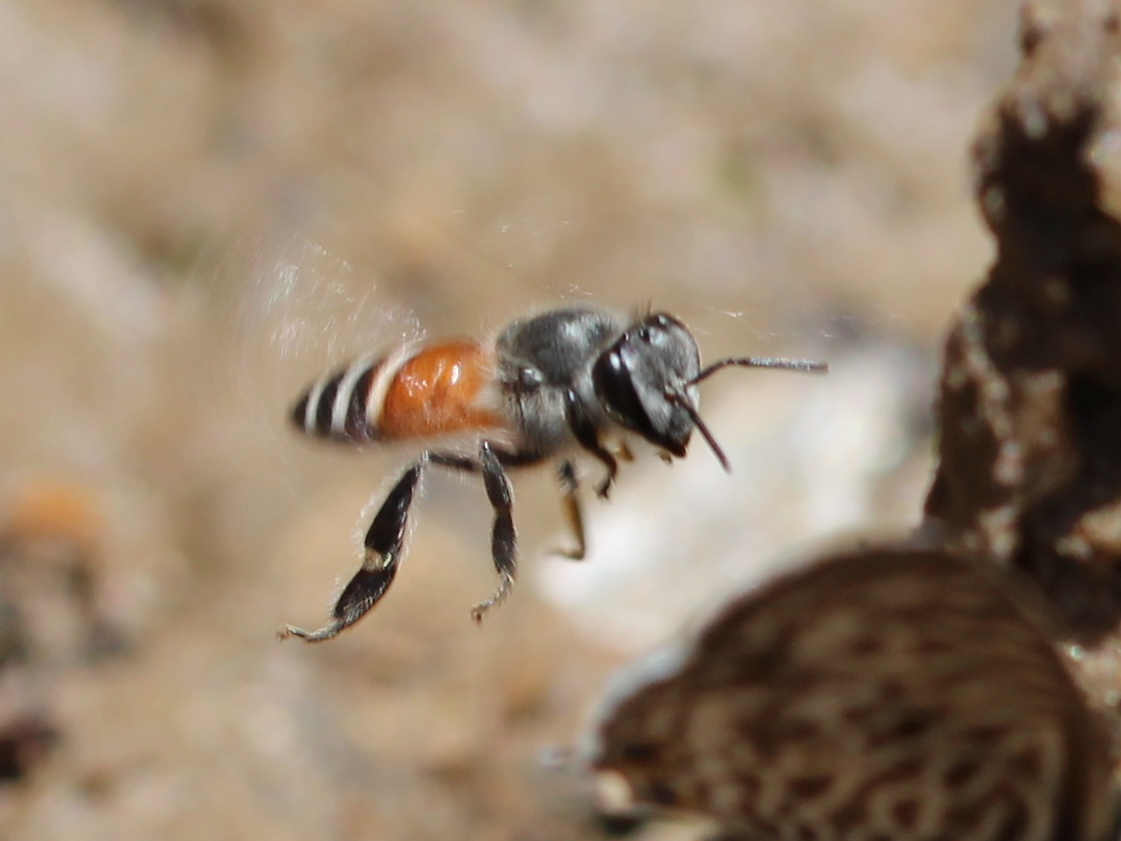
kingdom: Animalia
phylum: Arthropoda
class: Insecta
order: Hymenoptera
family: Apidae
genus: Apis
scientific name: Apis florea
